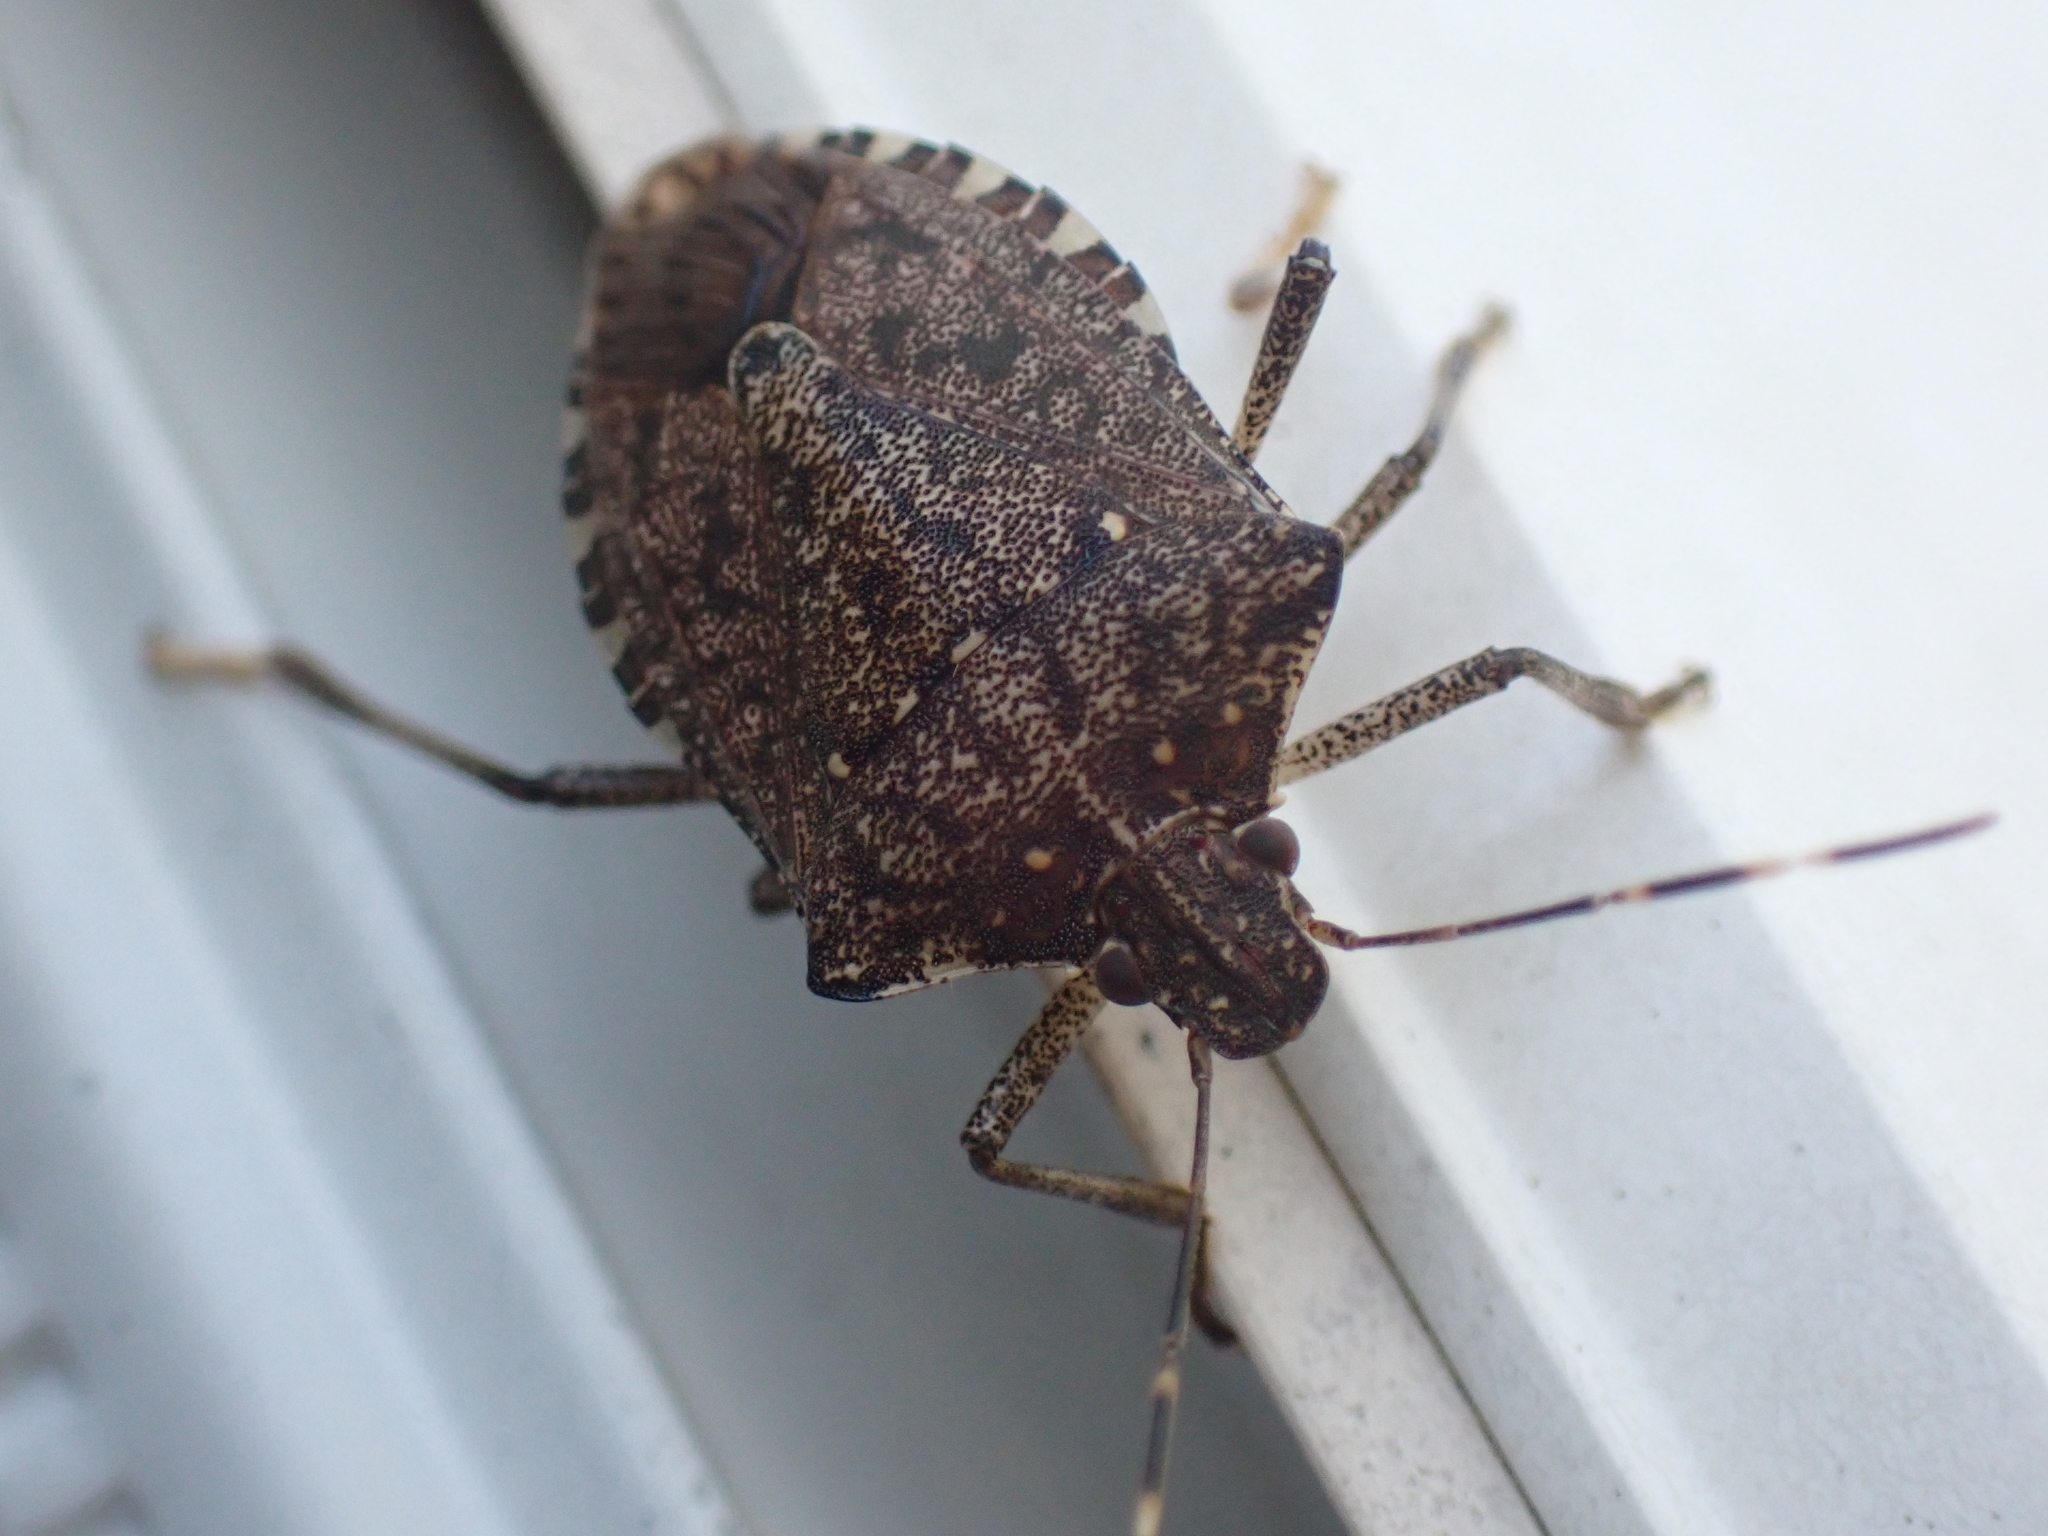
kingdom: Animalia
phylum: Arthropoda
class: Insecta
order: Hemiptera
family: Pentatomidae
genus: Halyomorpha
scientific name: Halyomorpha halys
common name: Brown marmorated stink bug
